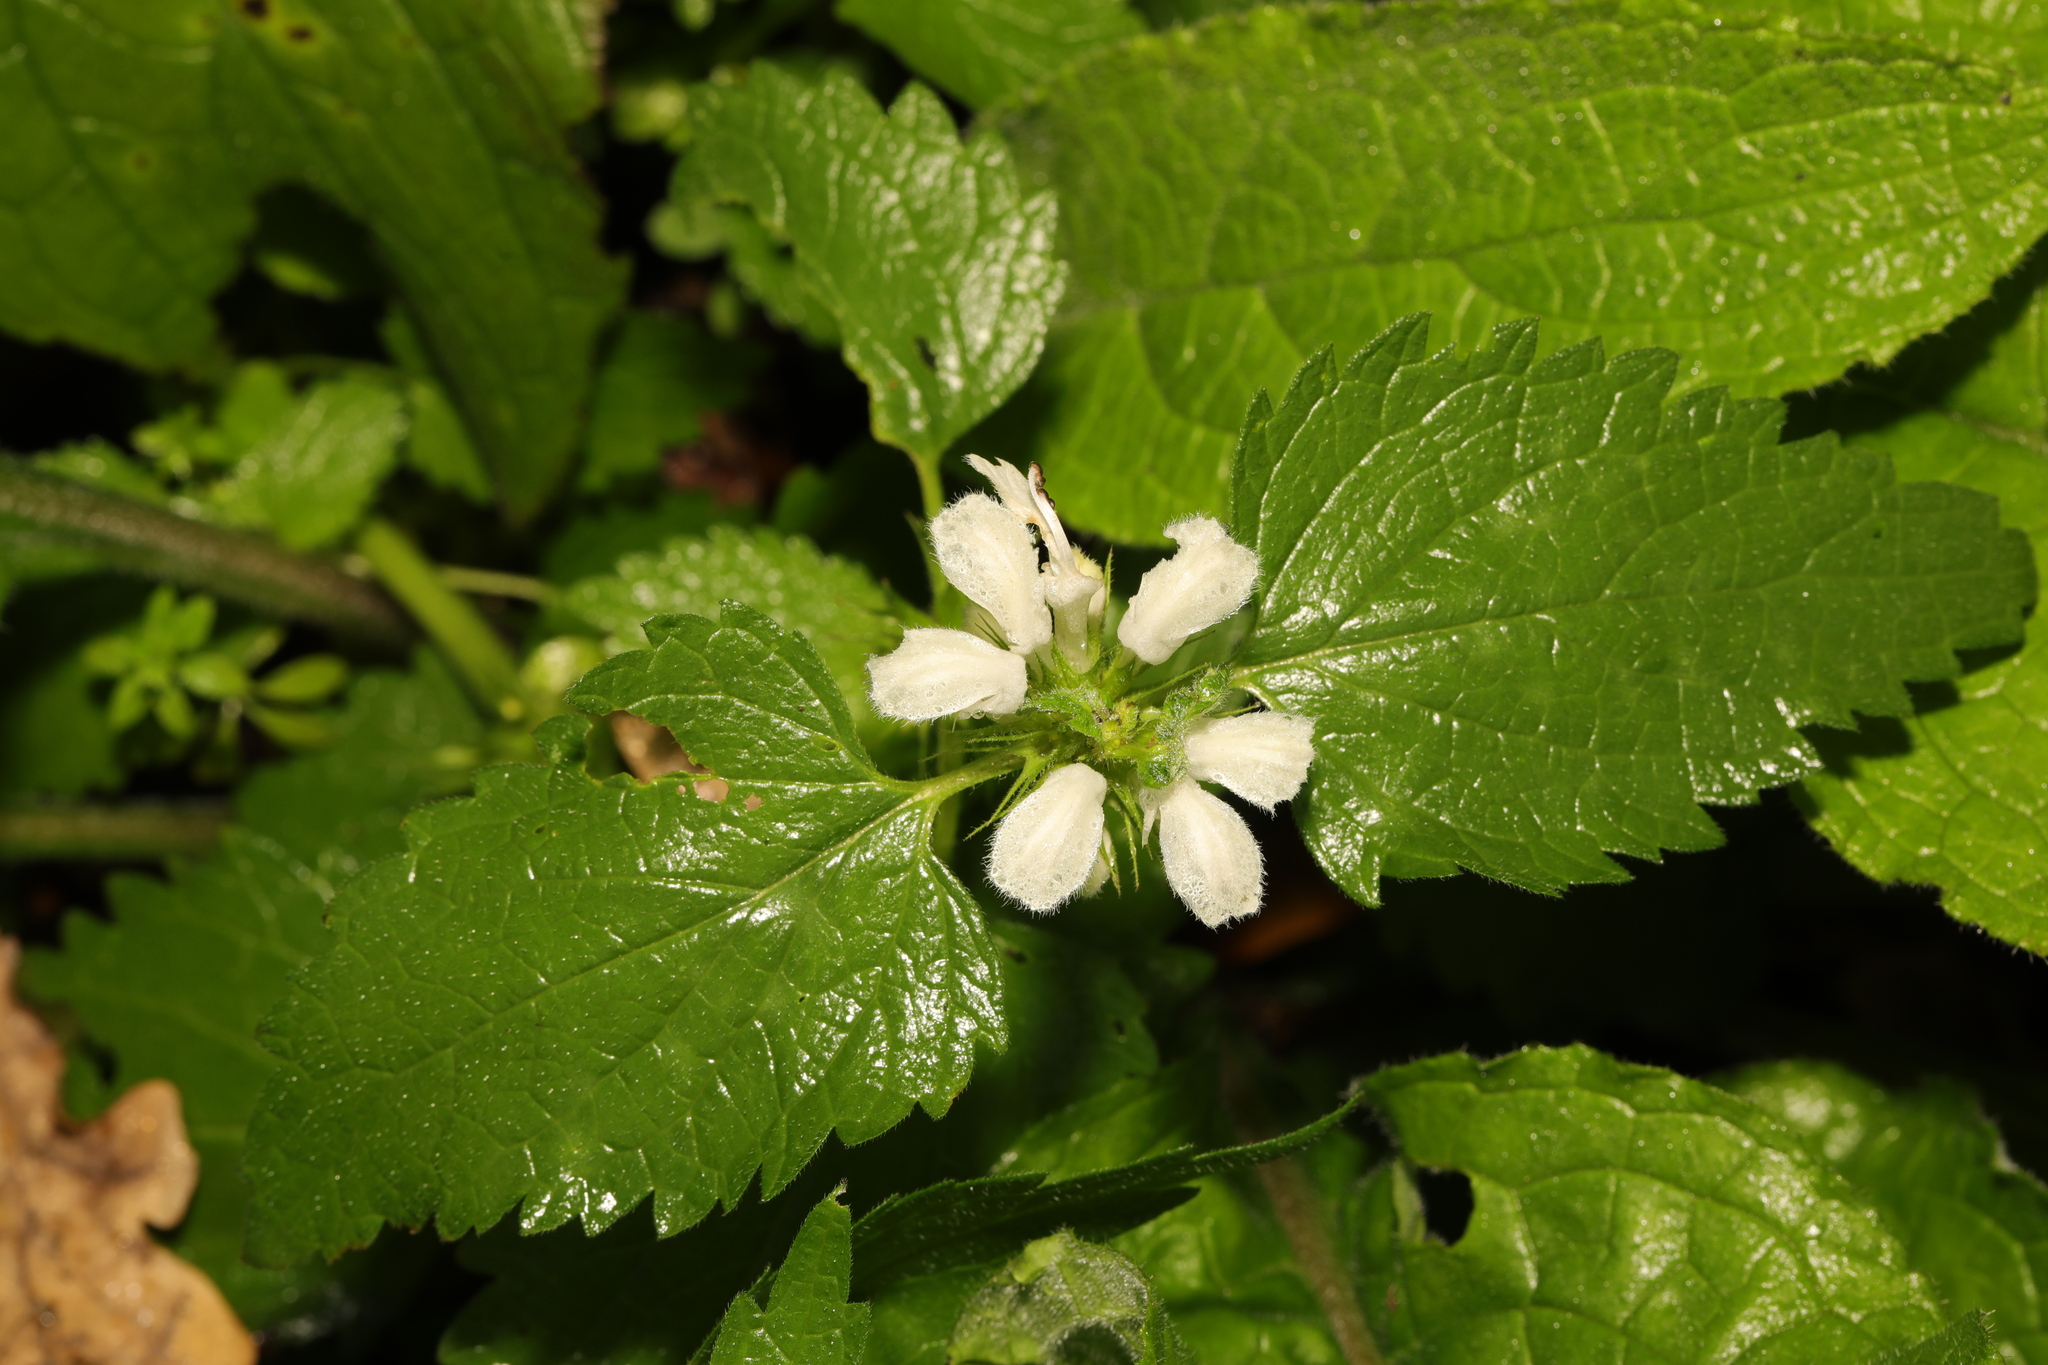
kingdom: Plantae
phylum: Tracheophyta
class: Magnoliopsida
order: Lamiales
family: Lamiaceae
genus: Lamium
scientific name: Lamium album
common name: White dead-nettle
